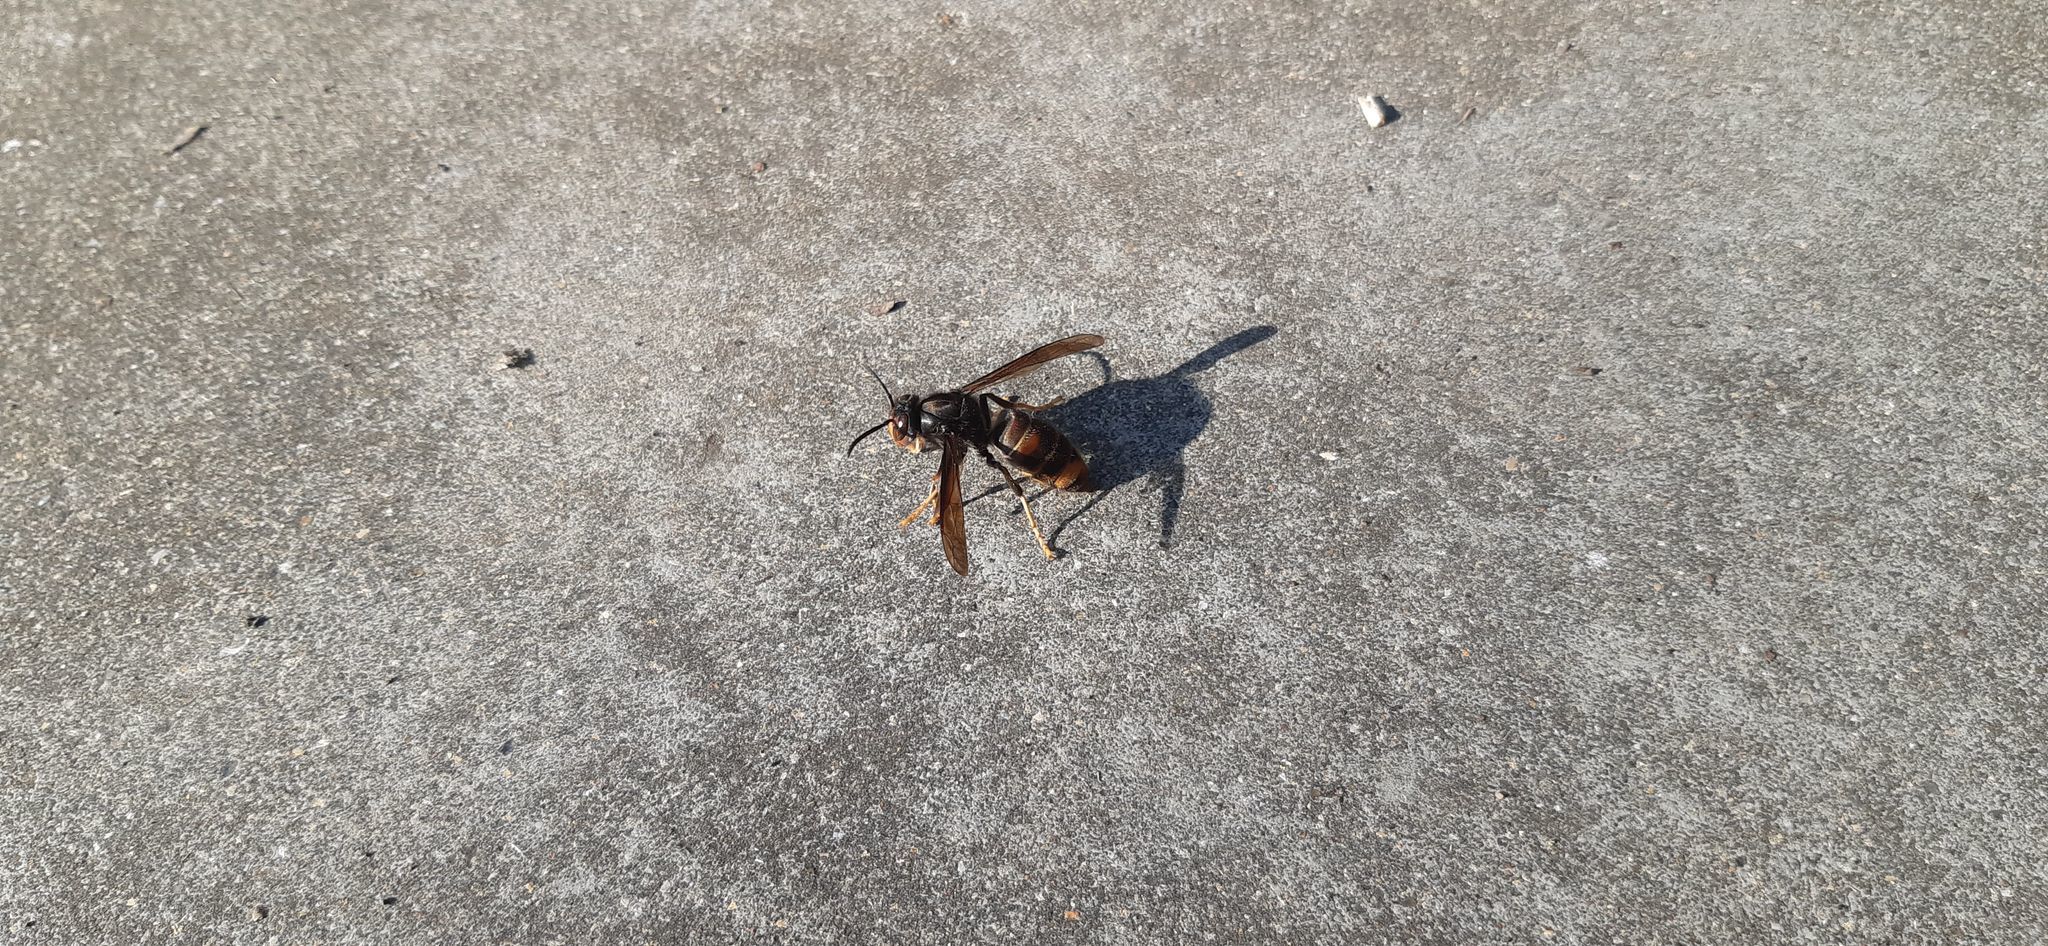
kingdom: Animalia
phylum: Arthropoda
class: Insecta
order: Hymenoptera
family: Vespidae
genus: Vespa
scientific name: Vespa velutina
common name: Asian hornet
